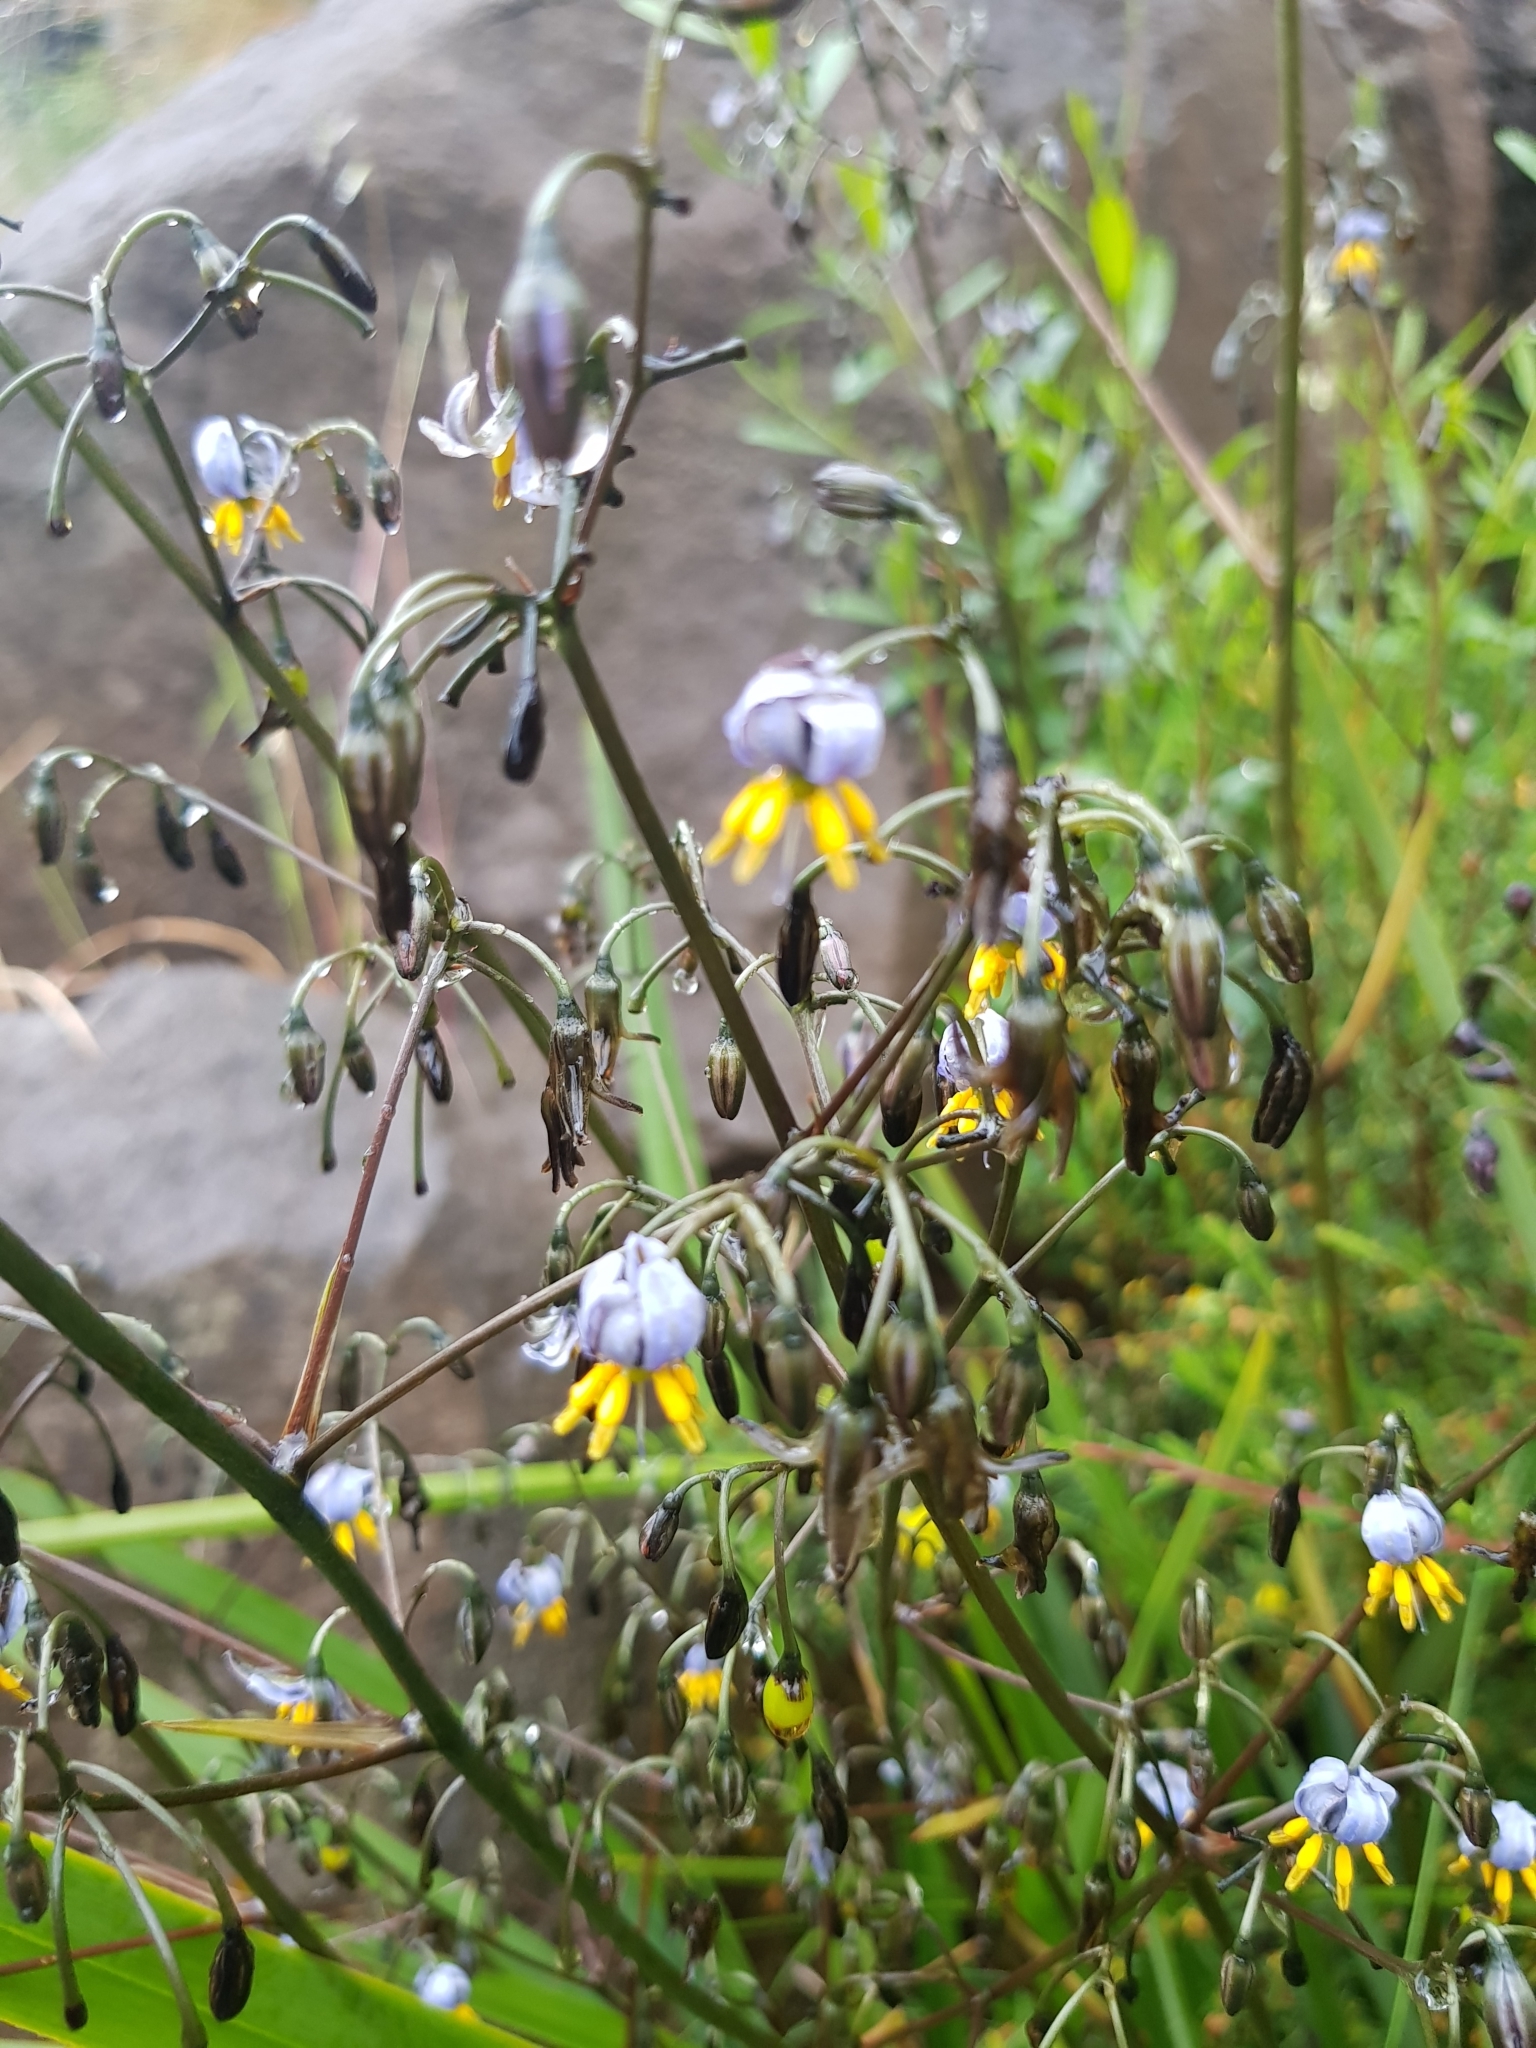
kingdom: Plantae
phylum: Tracheophyta
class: Liliopsida
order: Asparagales
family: Asphodelaceae
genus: Dianella
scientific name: Dianella tasmanica
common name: Tasman flax-lily
